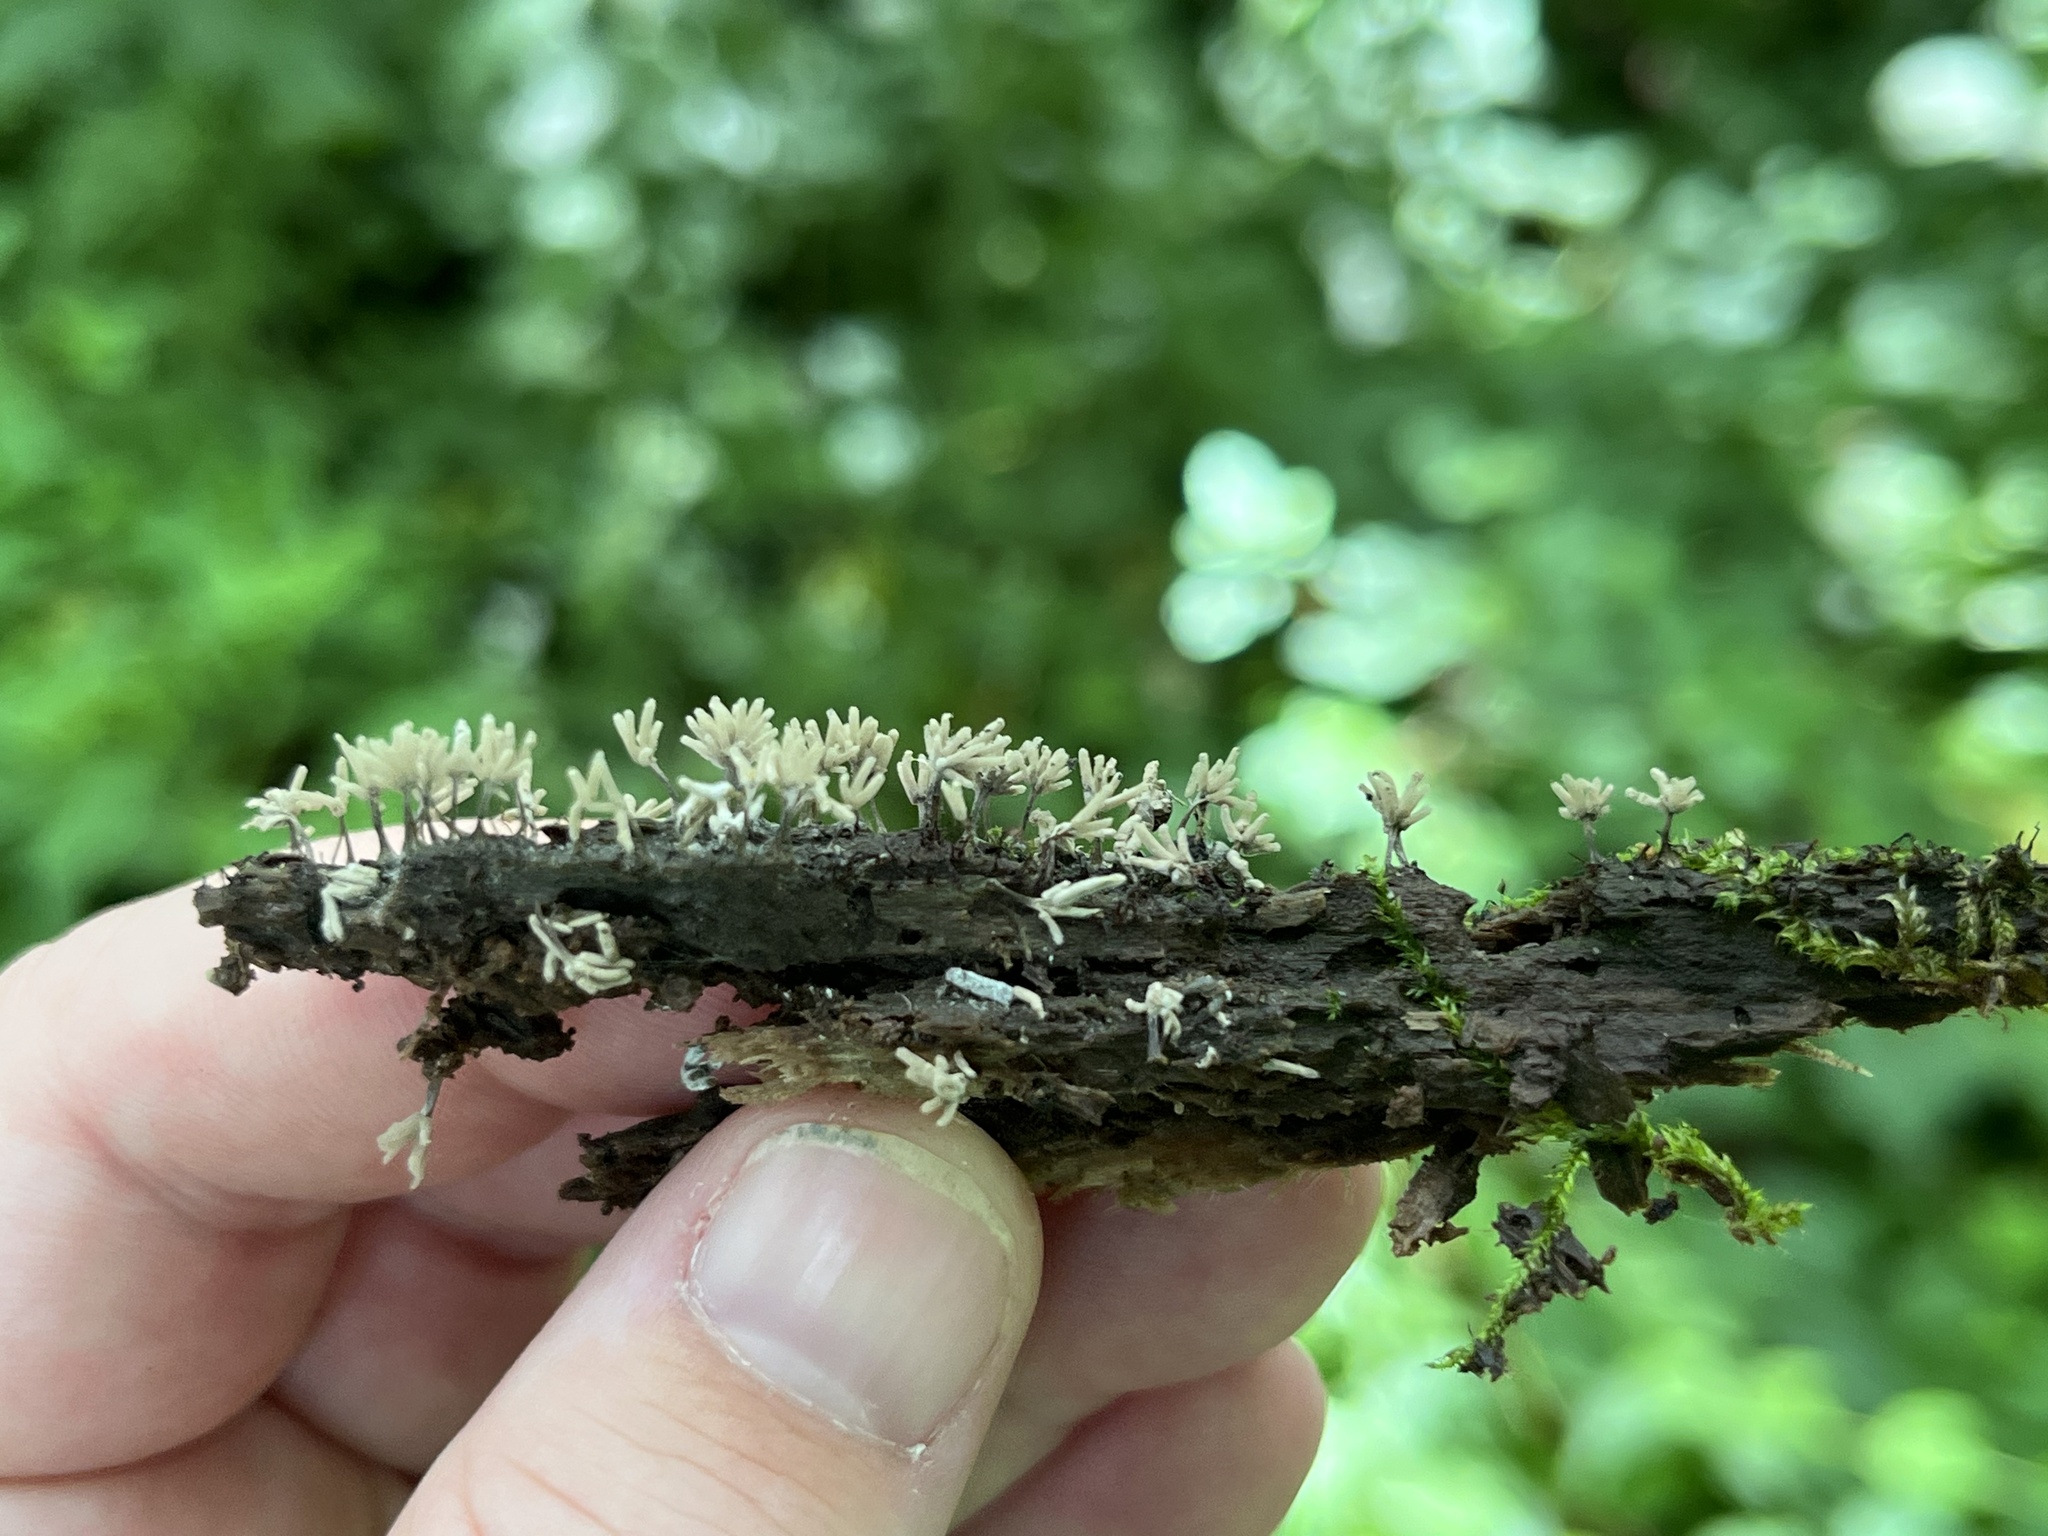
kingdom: Protozoa
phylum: Mycetozoa
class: Myxomycetes
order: Trichiales
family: Arcyriaceae
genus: Arcyria
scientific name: Arcyria cinerea
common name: White carnival candy slime mold
